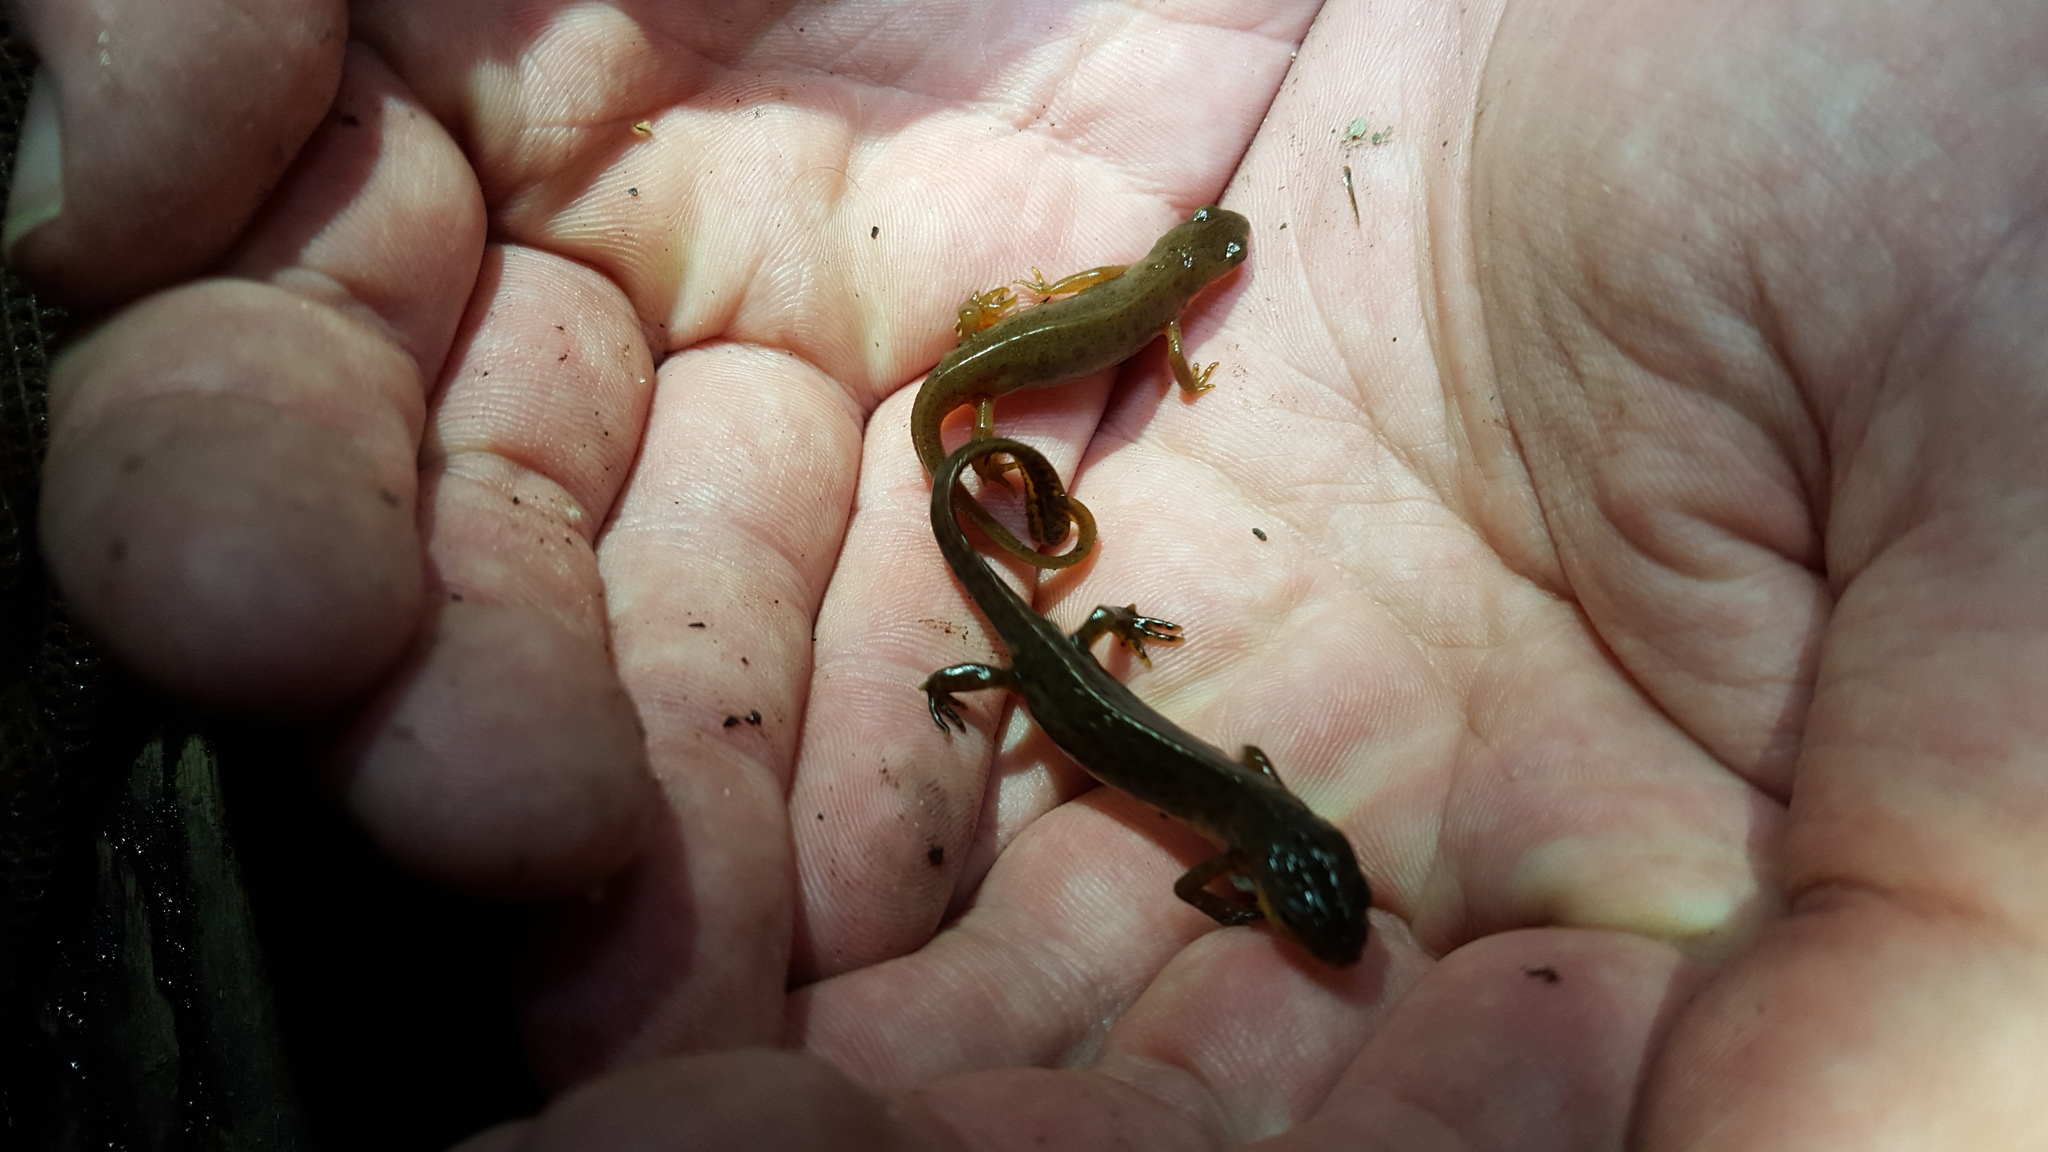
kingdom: Animalia
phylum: Chordata
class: Amphibia
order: Caudata
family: Salamandridae
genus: Notophthalmus
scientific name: Notophthalmus viridescens
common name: Eastern newt
